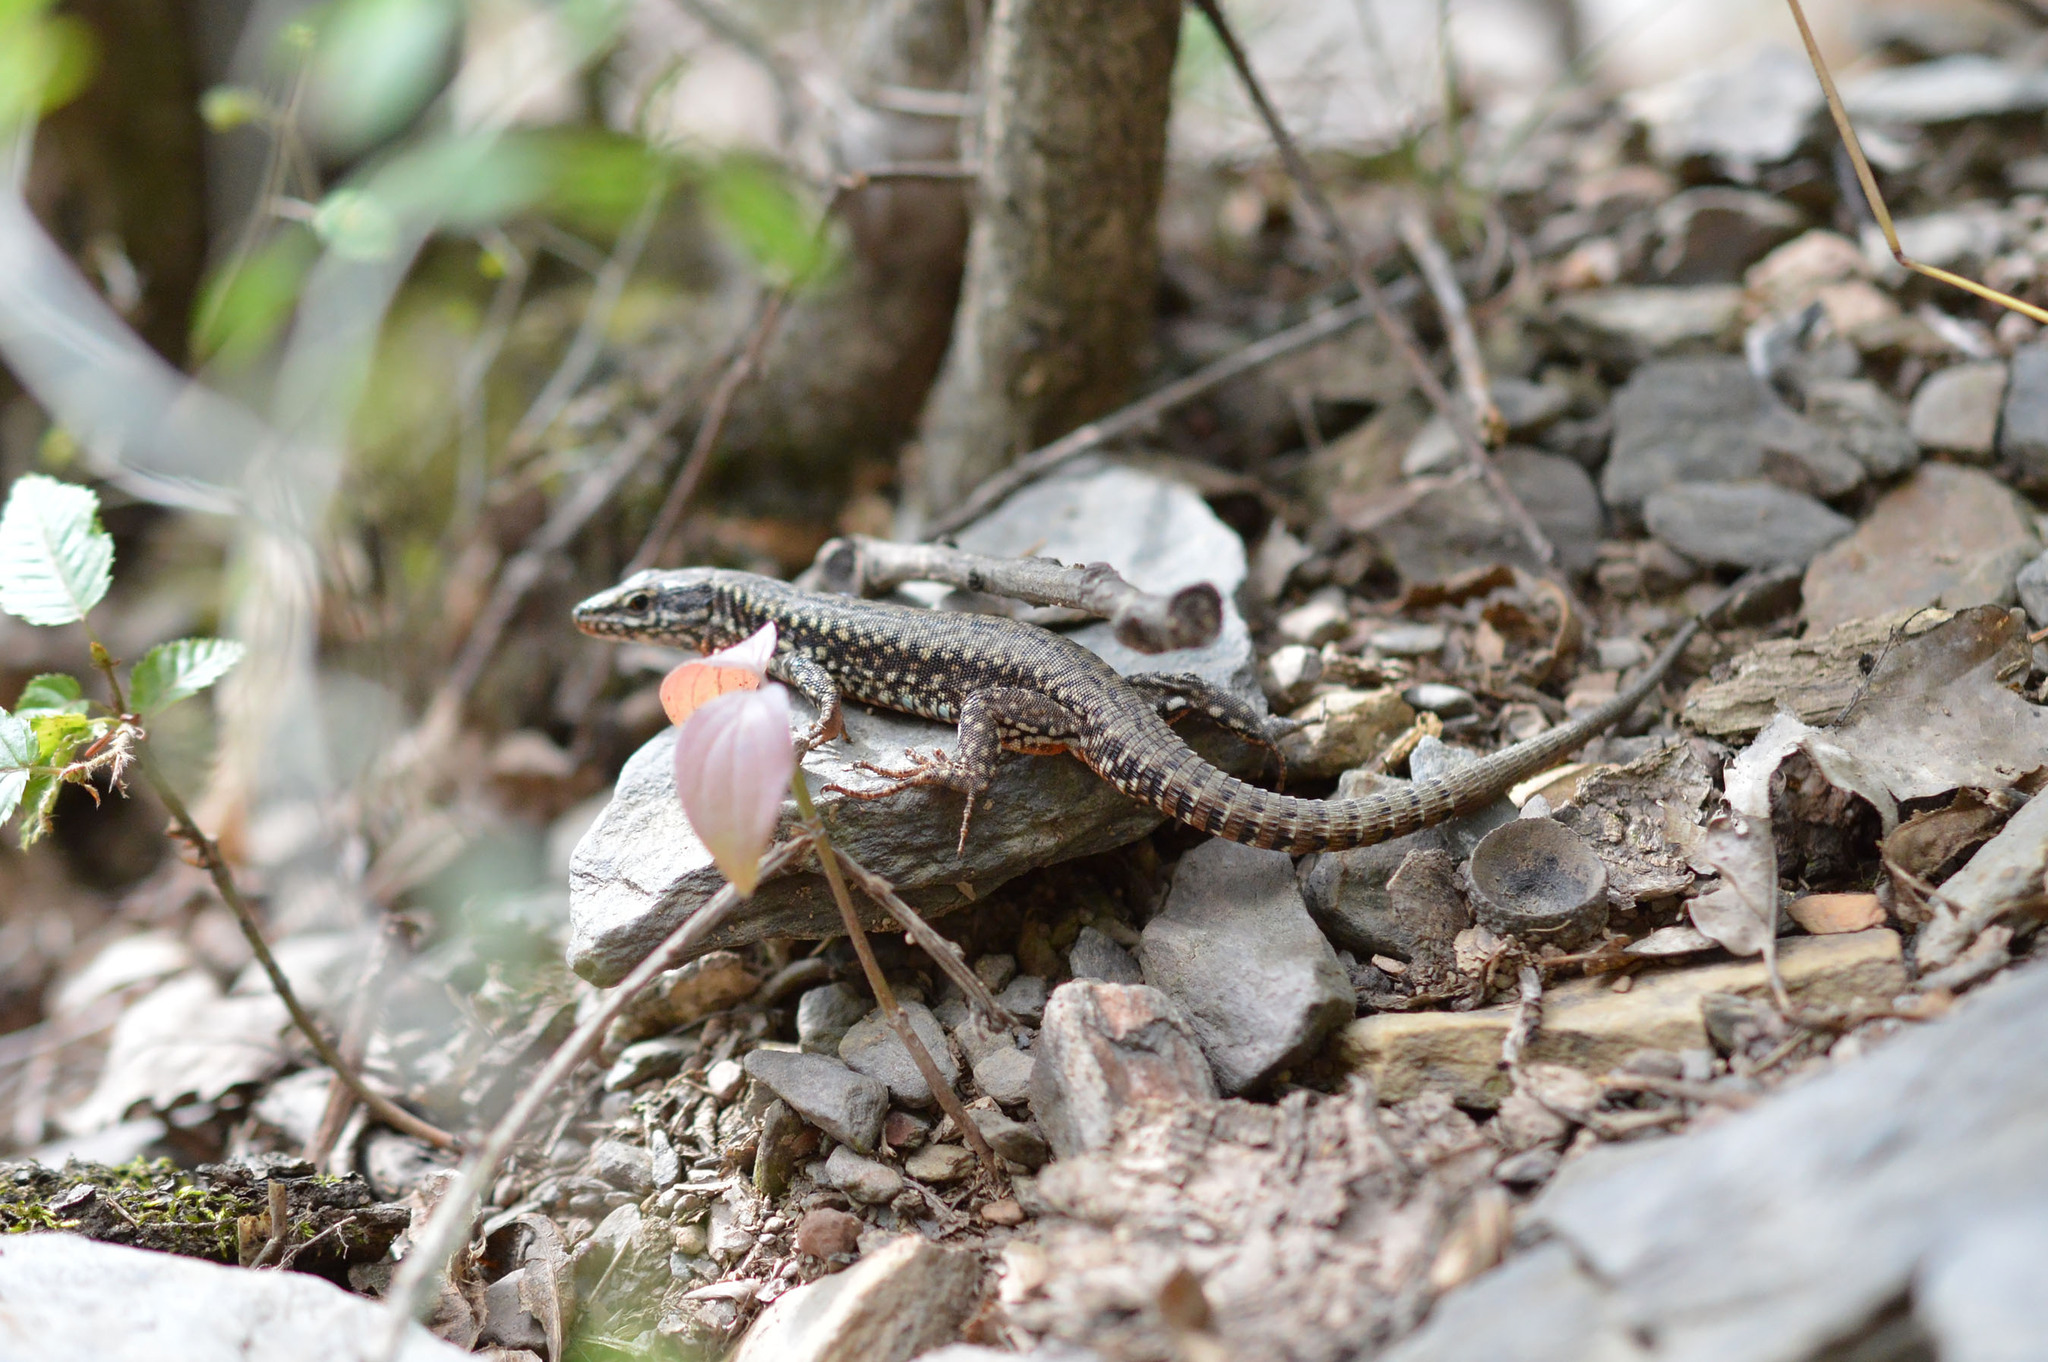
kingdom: Animalia
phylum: Chordata
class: Squamata
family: Lacertidae
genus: Podarcis
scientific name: Podarcis muralis
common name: Common wall lizard
